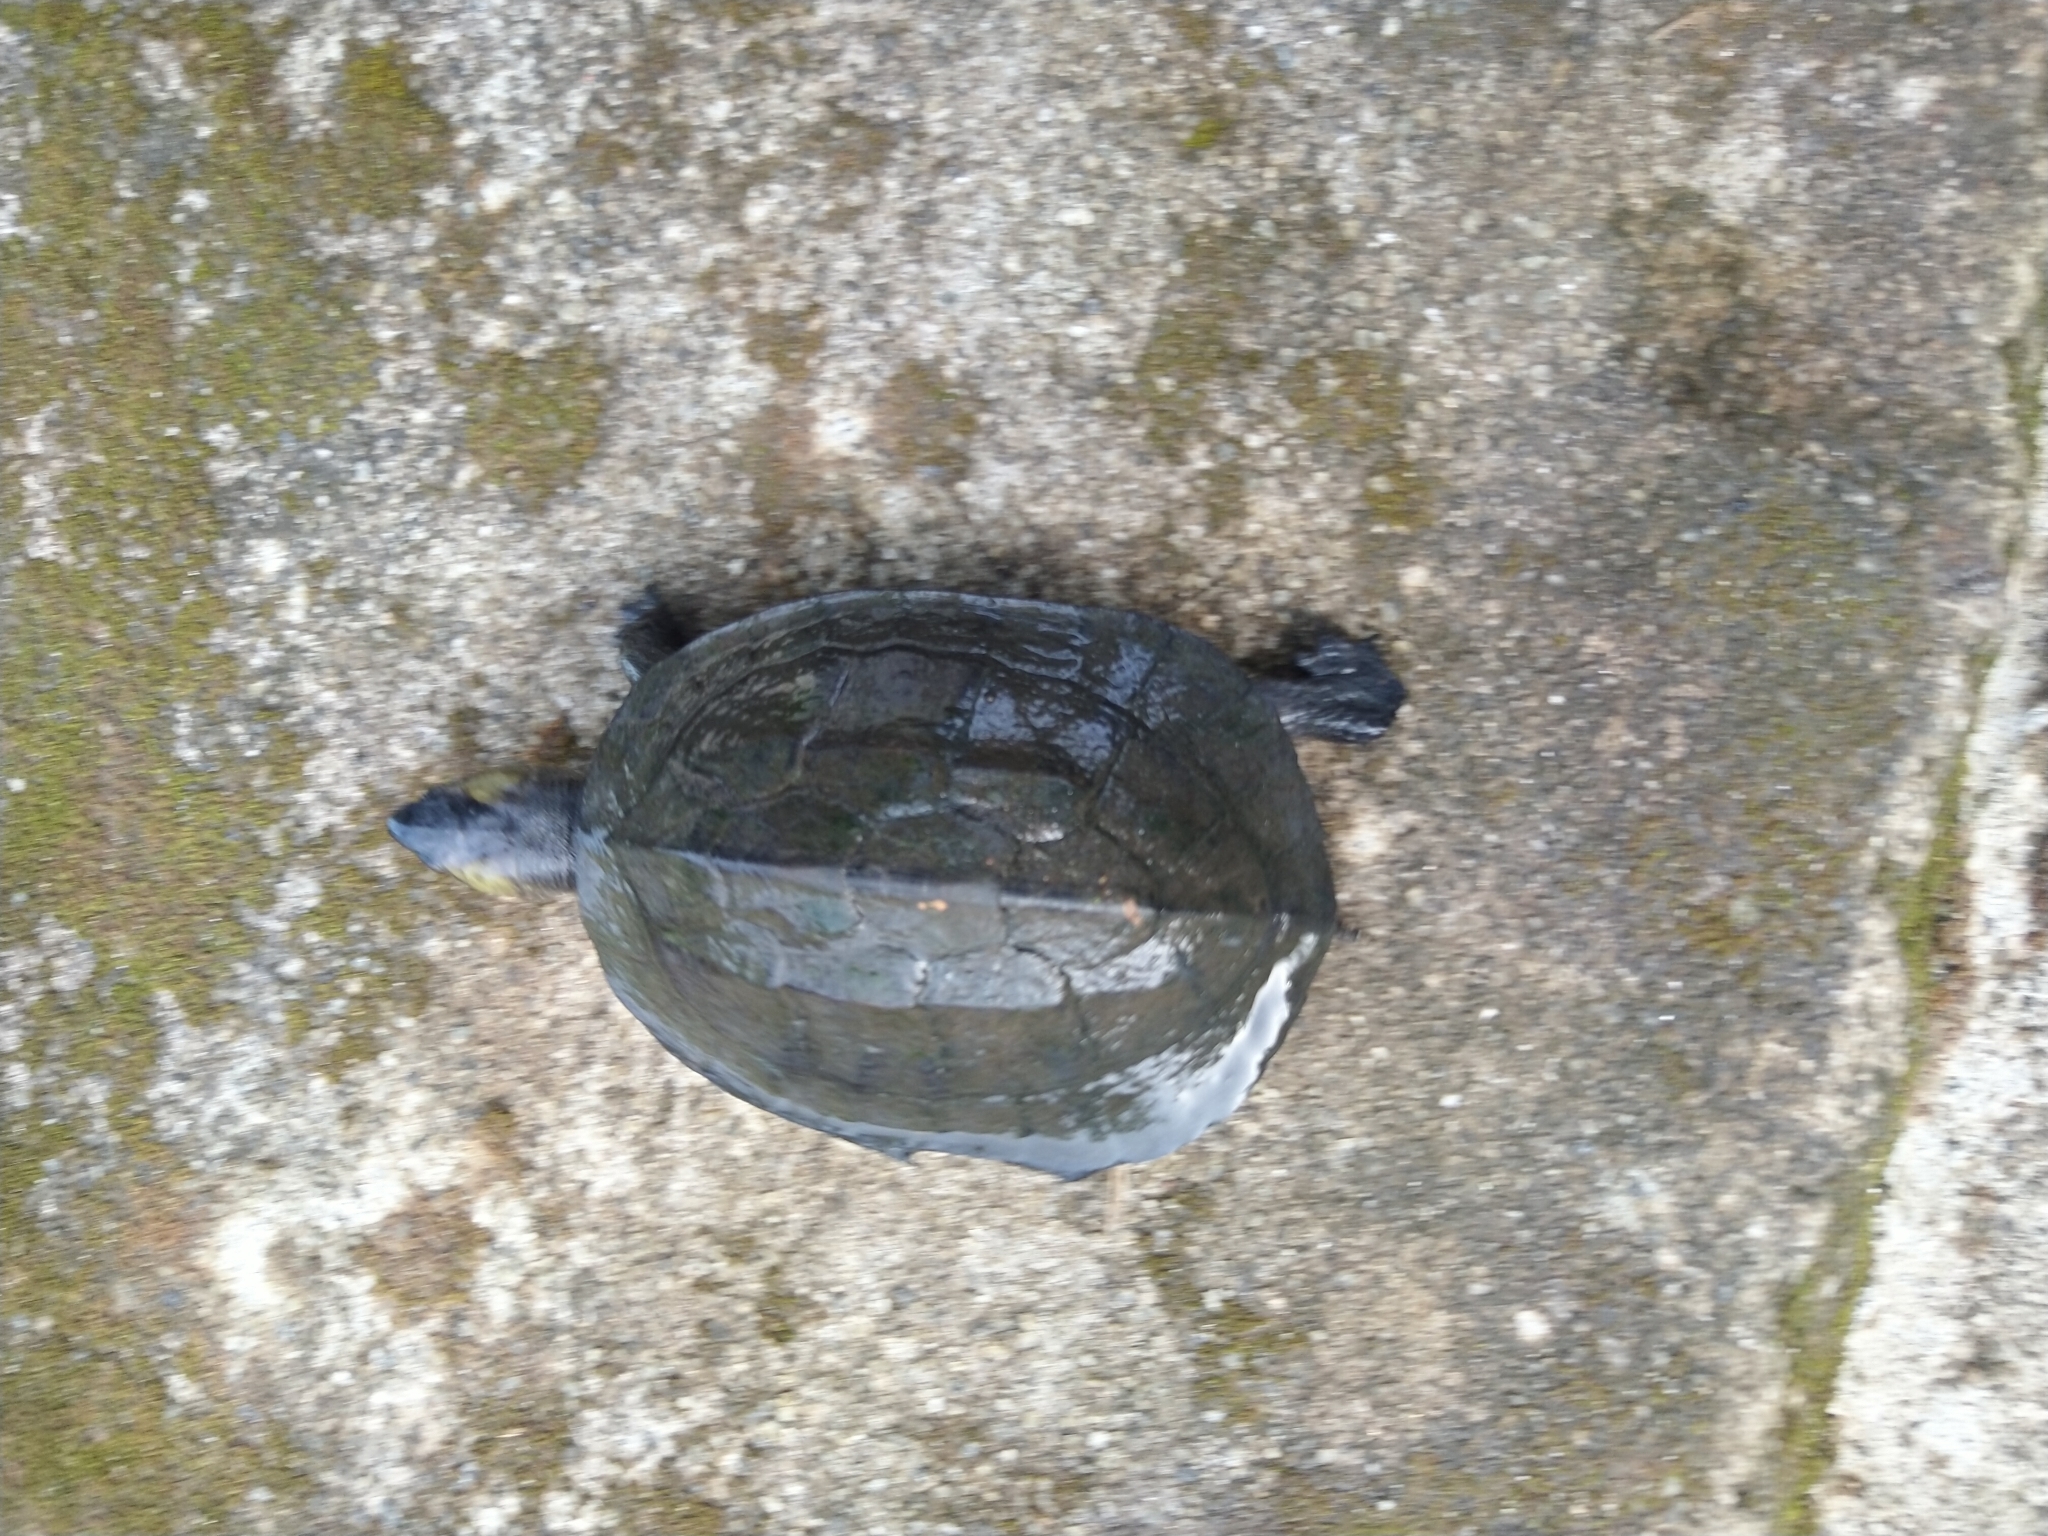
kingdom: Animalia
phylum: Chordata
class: Testudines
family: Geoemydidae
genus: Melanochelys
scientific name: Melanochelys trijuga
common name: Indian black turtle
